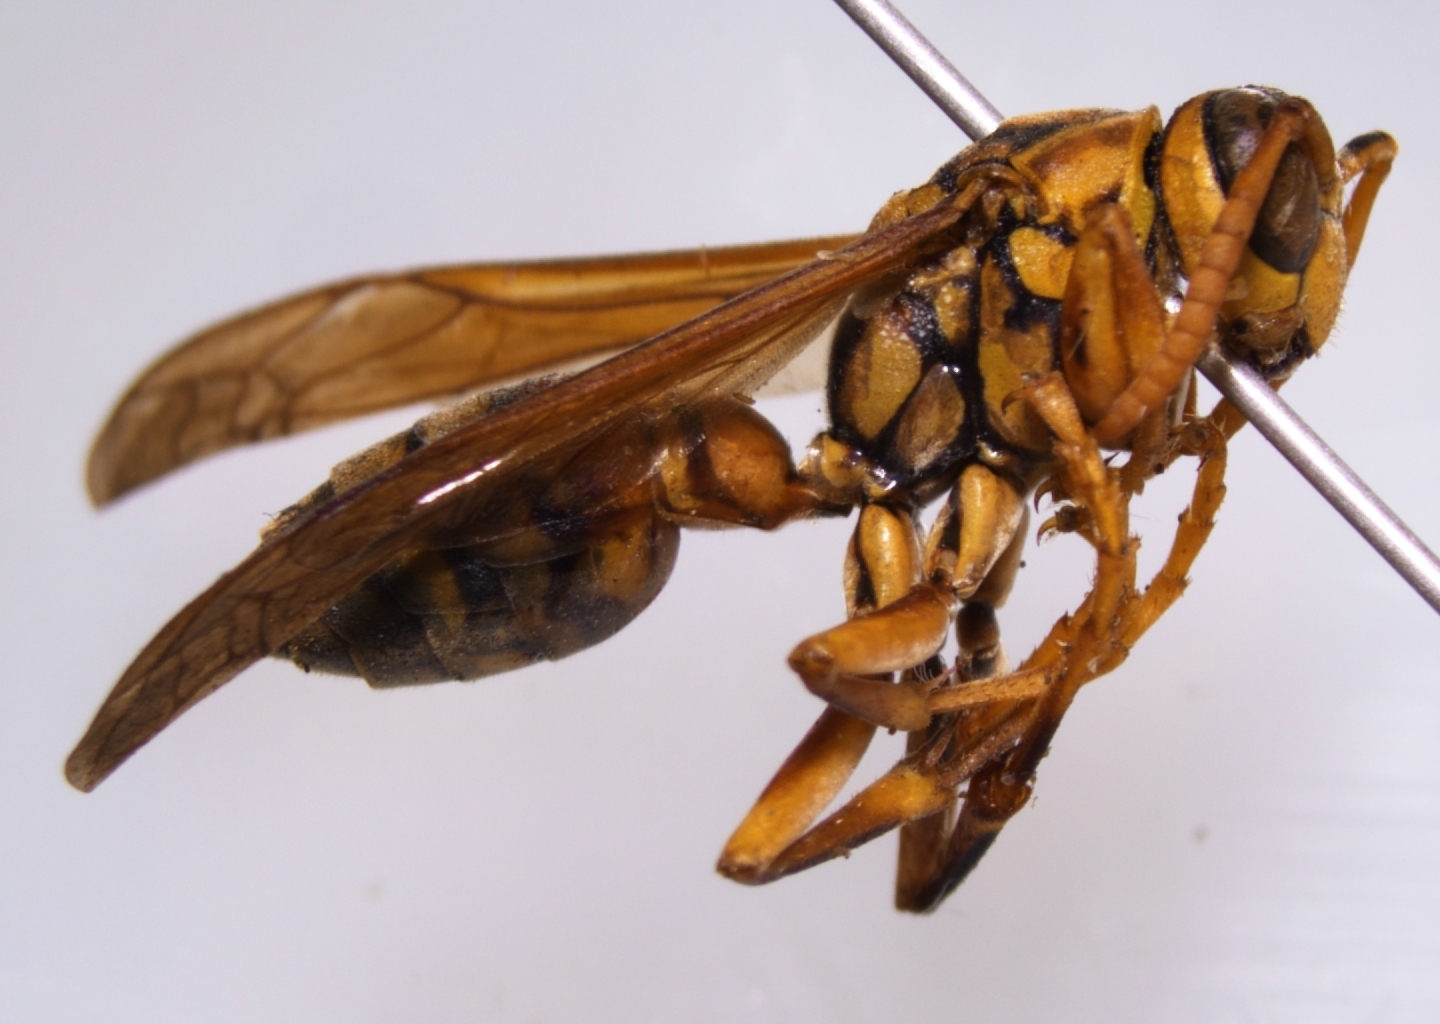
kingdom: Animalia
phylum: Arthropoda
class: Insecta
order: Hymenoptera
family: Eumenidae
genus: Polistes
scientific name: Polistes olivaceus
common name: Paper wasp
